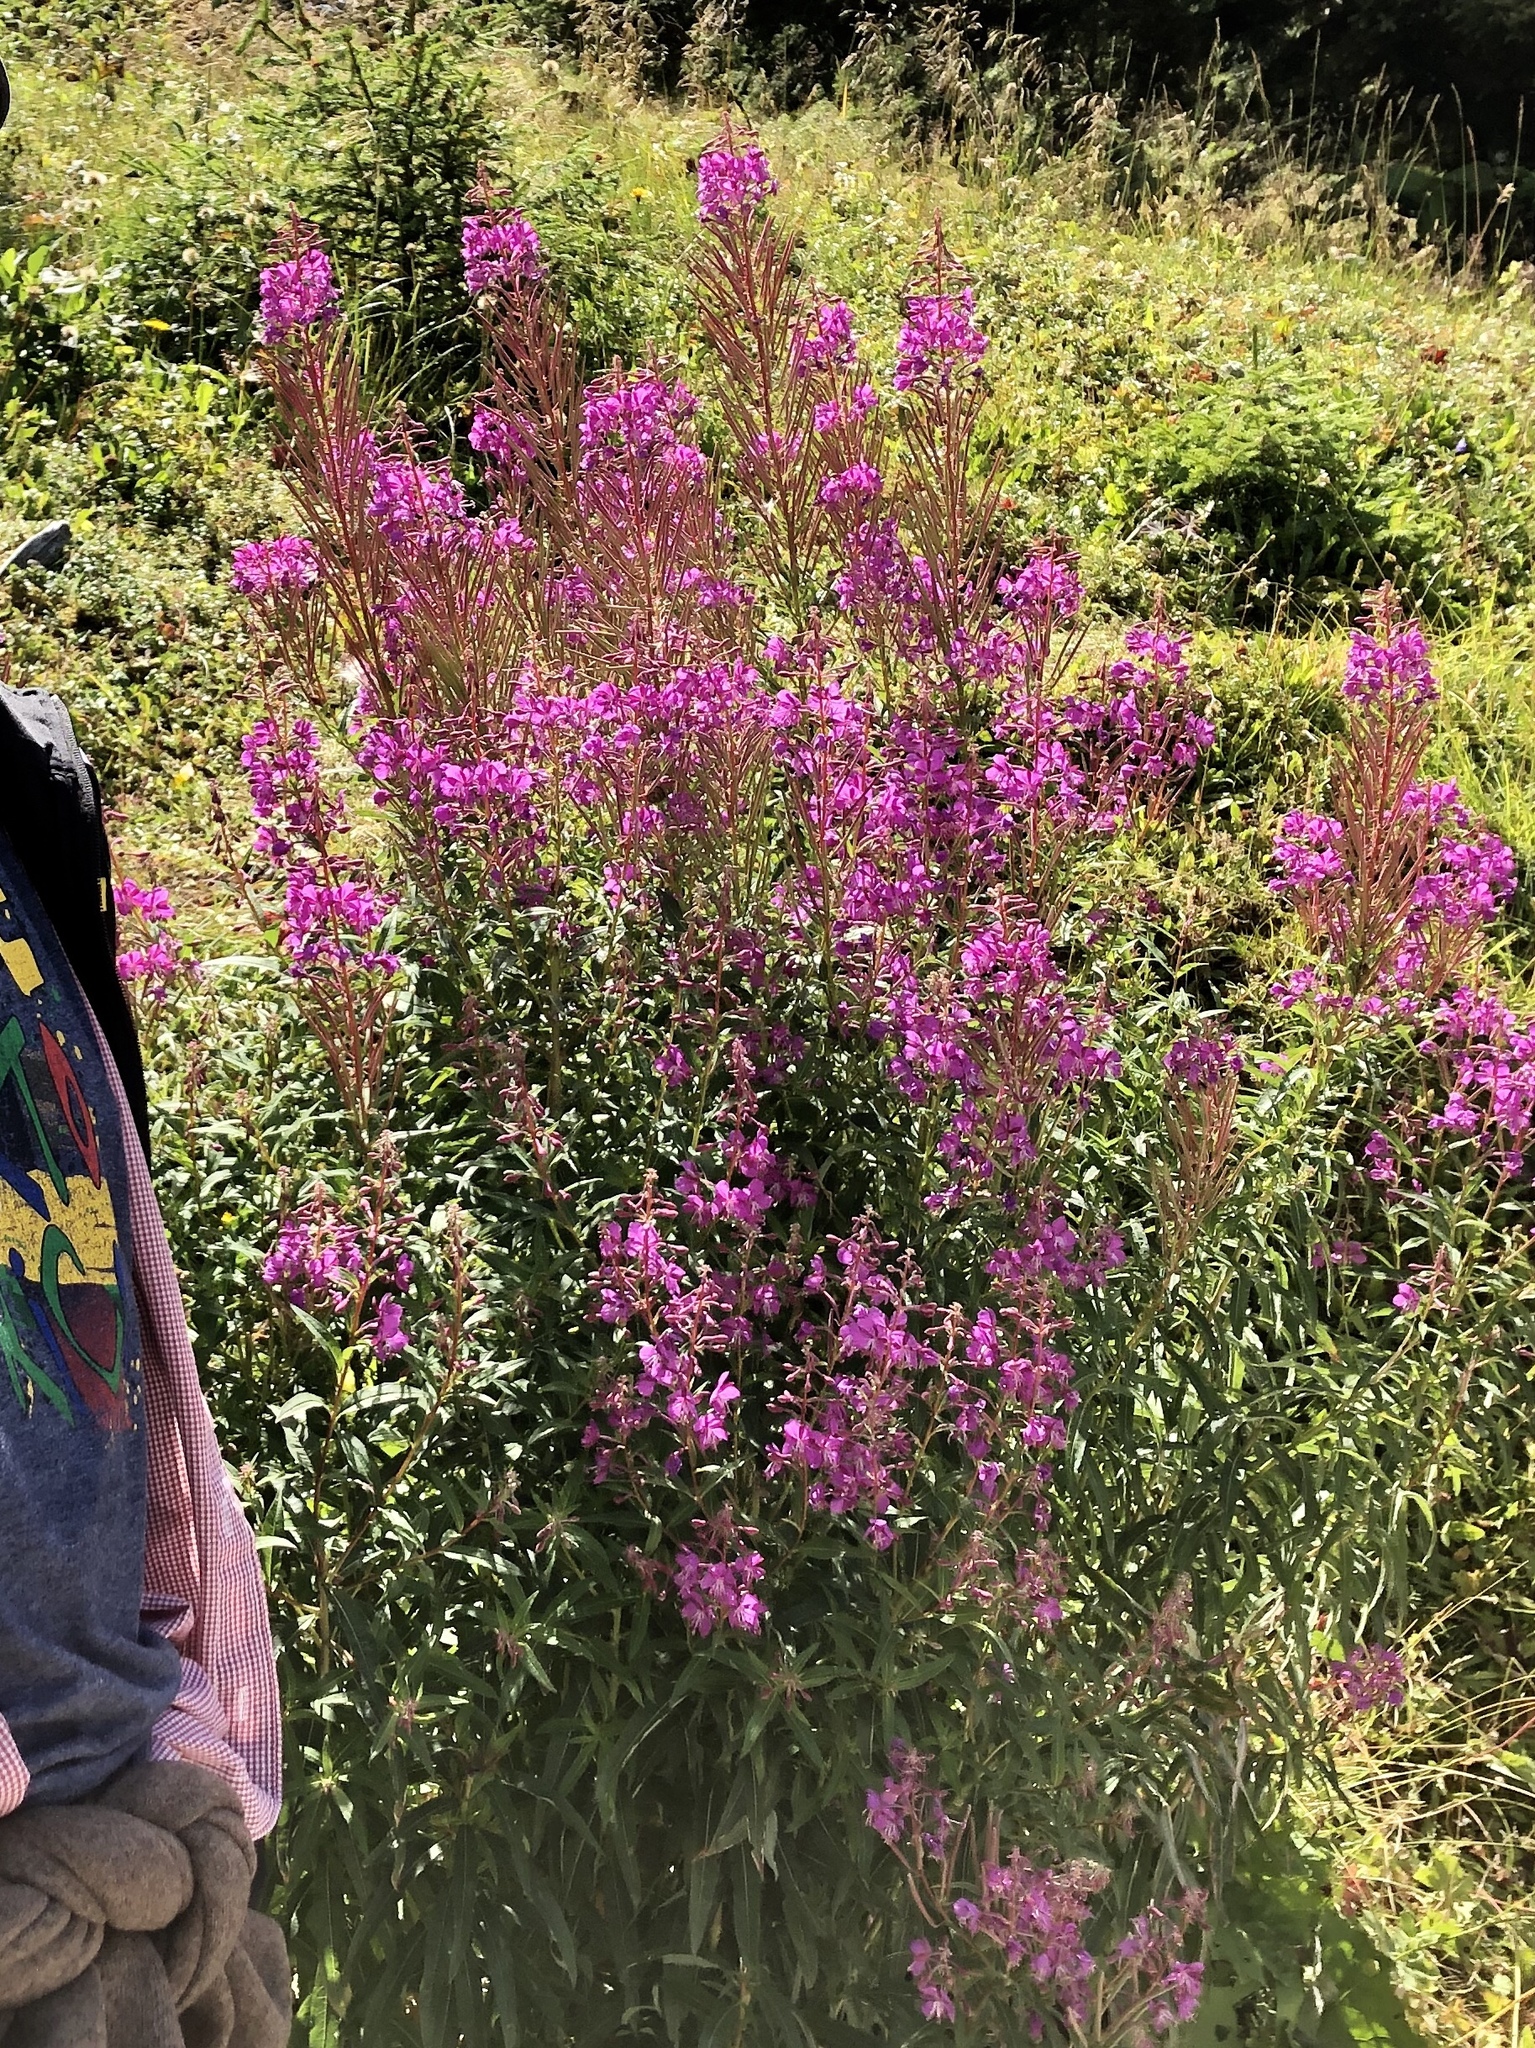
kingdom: Plantae
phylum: Tracheophyta
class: Magnoliopsida
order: Myrtales
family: Onagraceae
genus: Chamaenerion
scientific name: Chamaenerion angustifolium
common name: Fireweed
